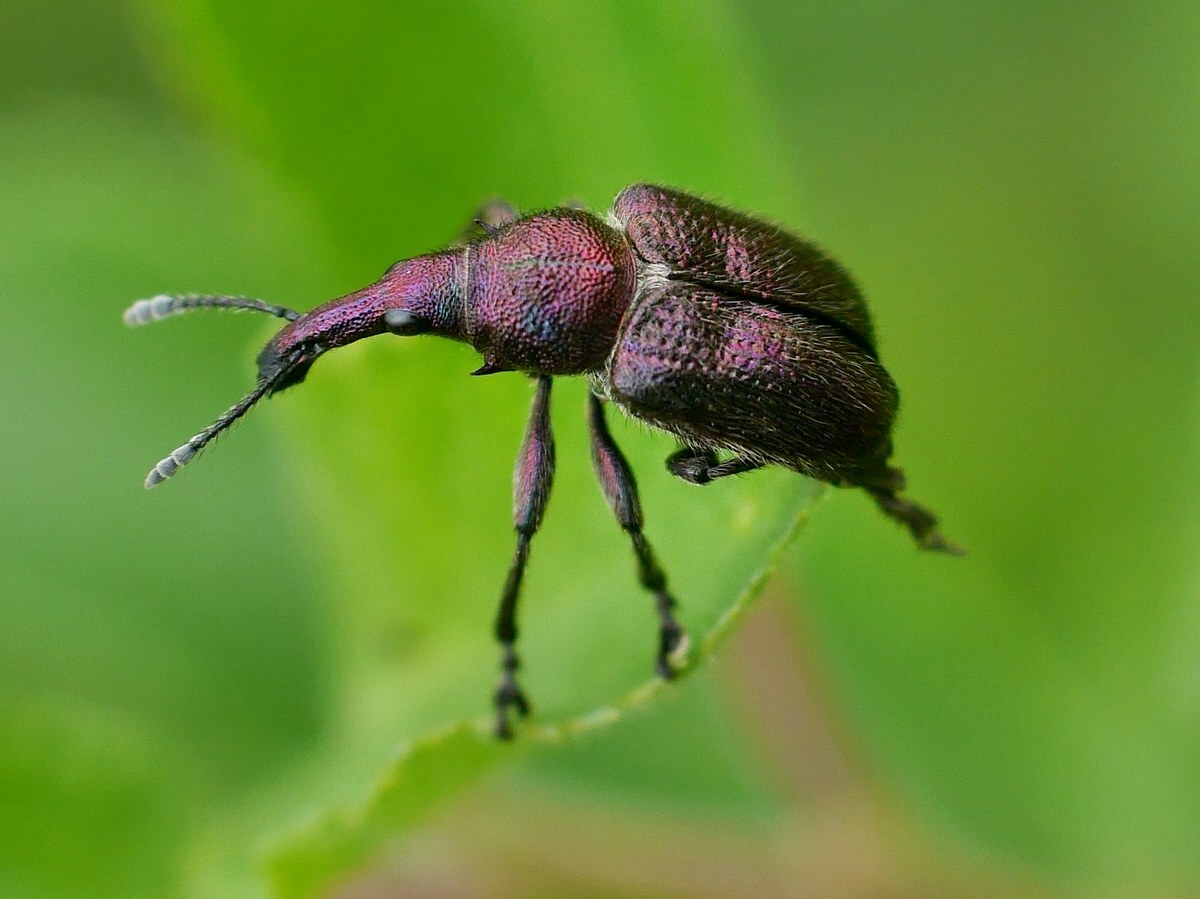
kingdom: Animalia
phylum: Arthropoda
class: Insecta
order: Coleoptera
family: Attelabidae
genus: Rhynchites
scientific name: Rhynchites auratus
